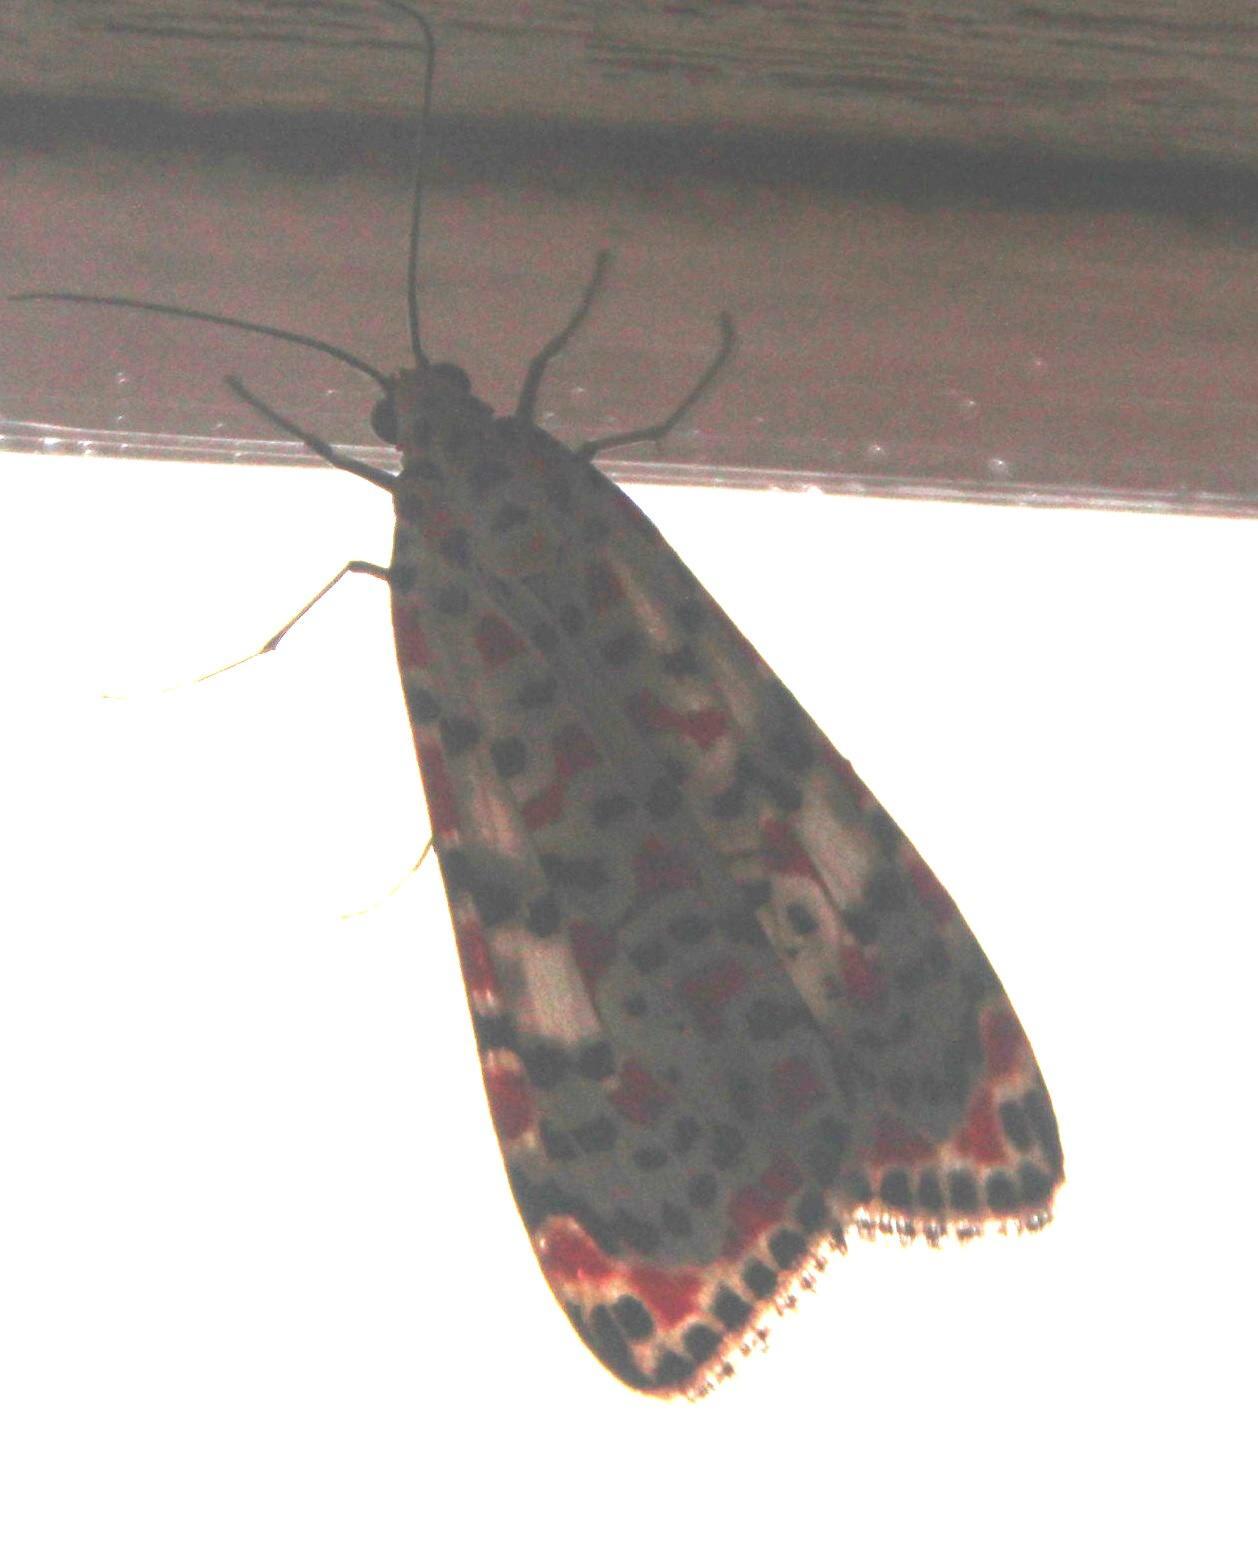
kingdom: Animalia
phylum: Arthropoda
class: Insecta
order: Lepidoptera
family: Erebidae
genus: Utetheisa
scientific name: Utetheisa pulchella
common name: Crimson speckled
